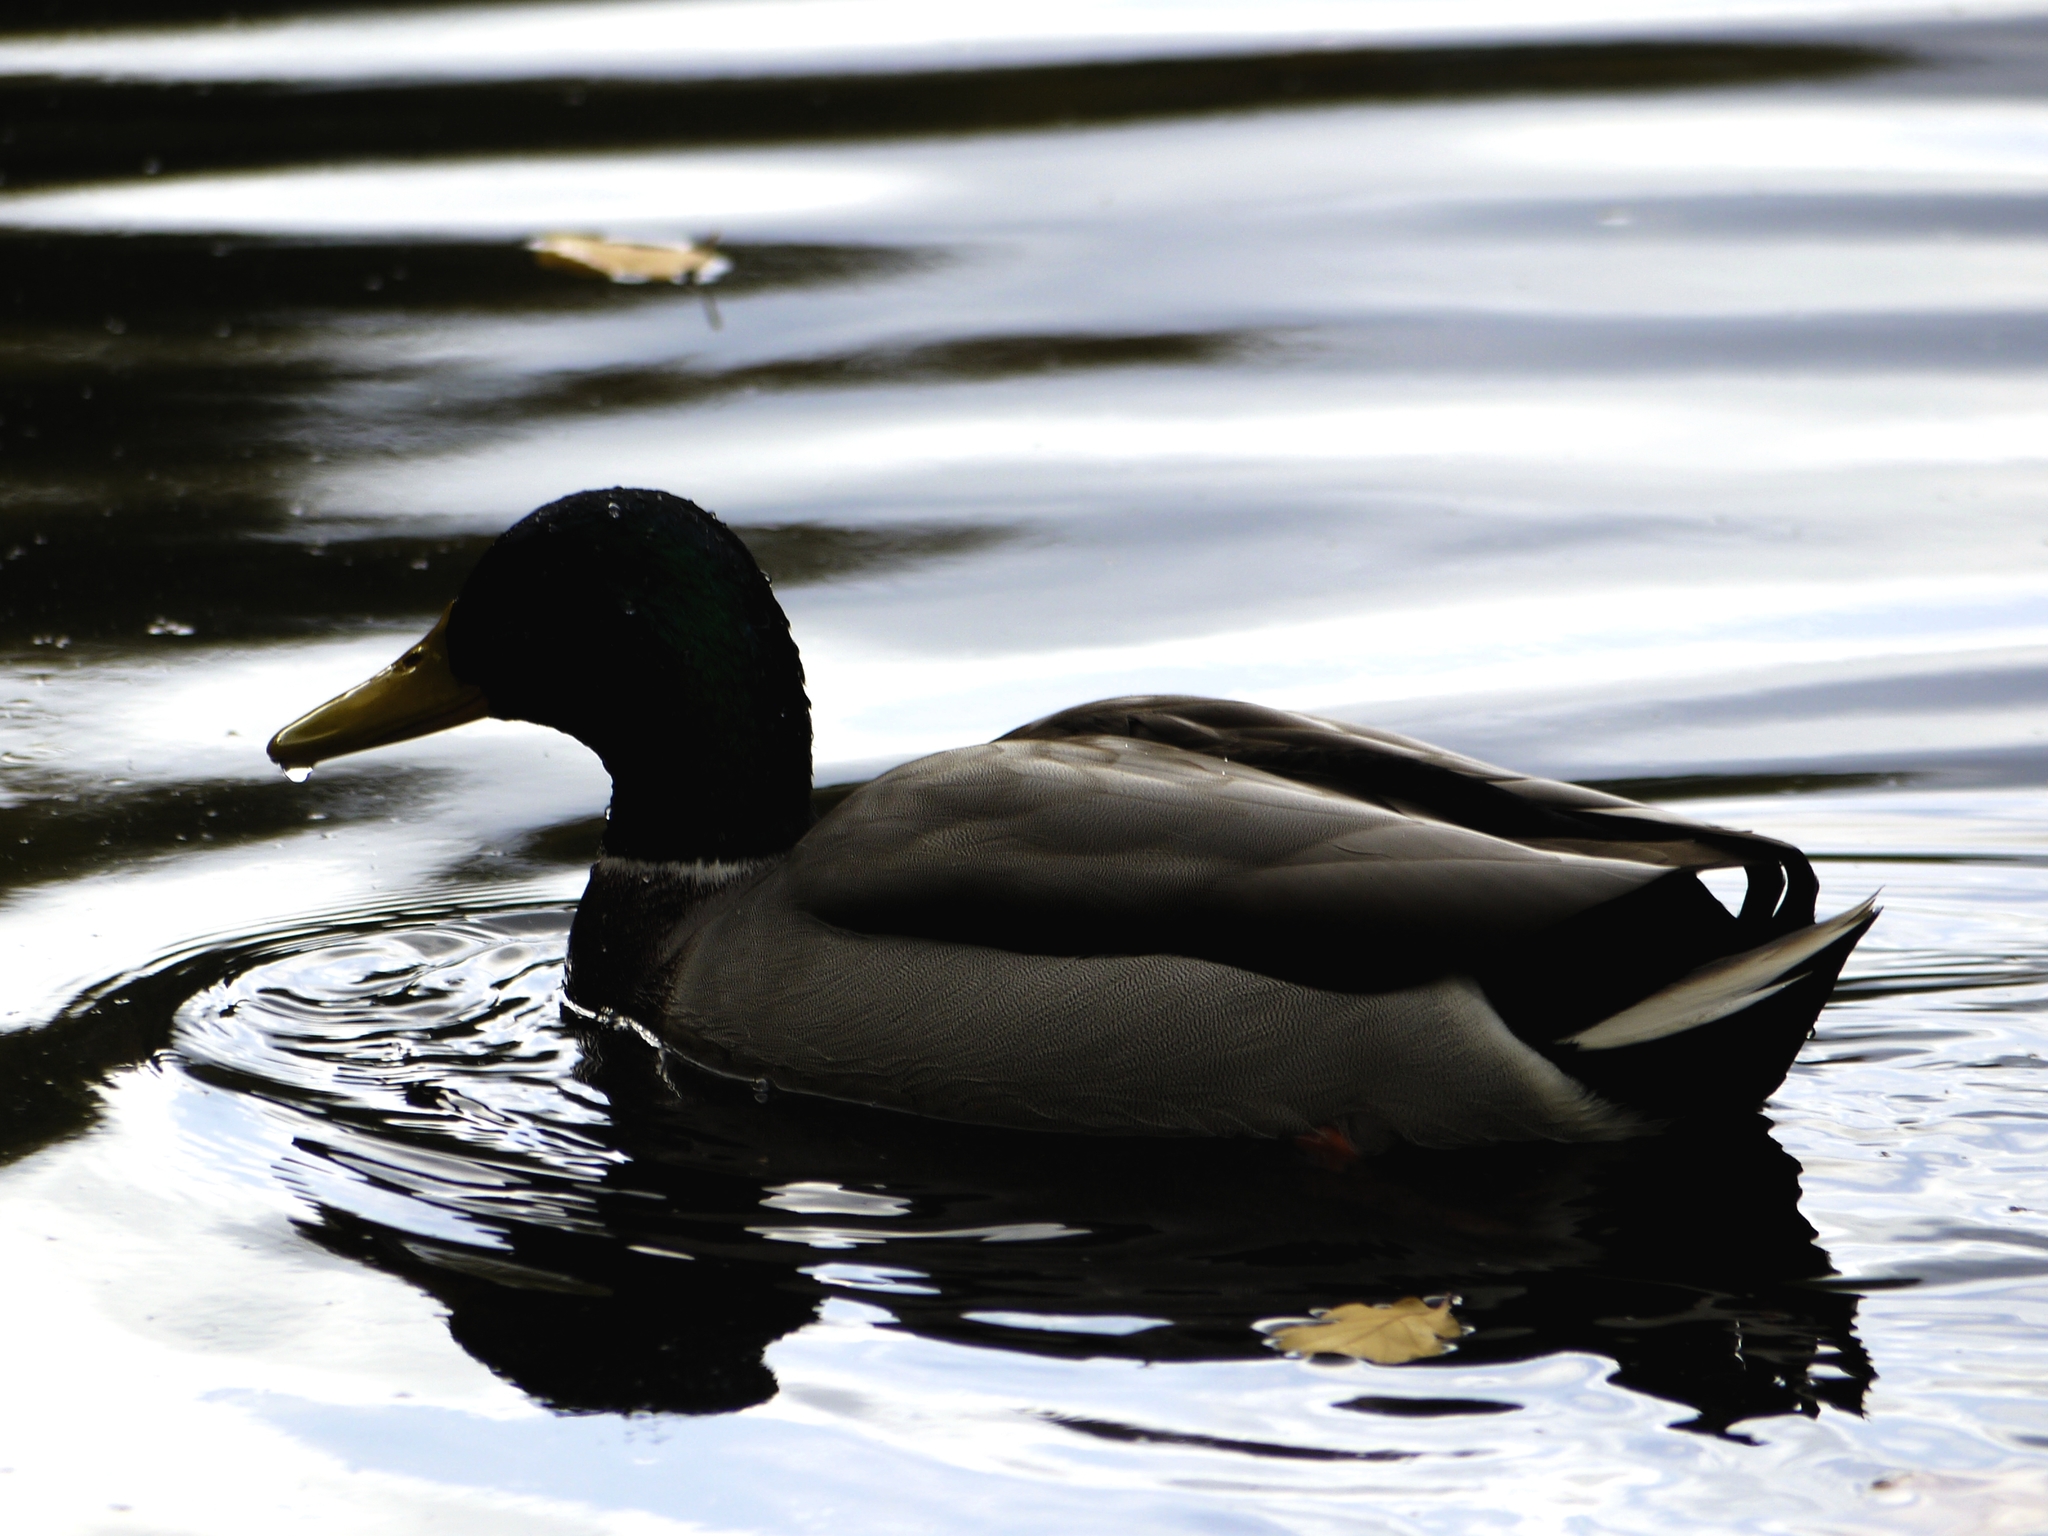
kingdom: Animalia
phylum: Chordata
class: Aves
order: Anseriformes
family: Anatidae
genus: Anas
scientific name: Anas platyrhynchos
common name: Mallard
